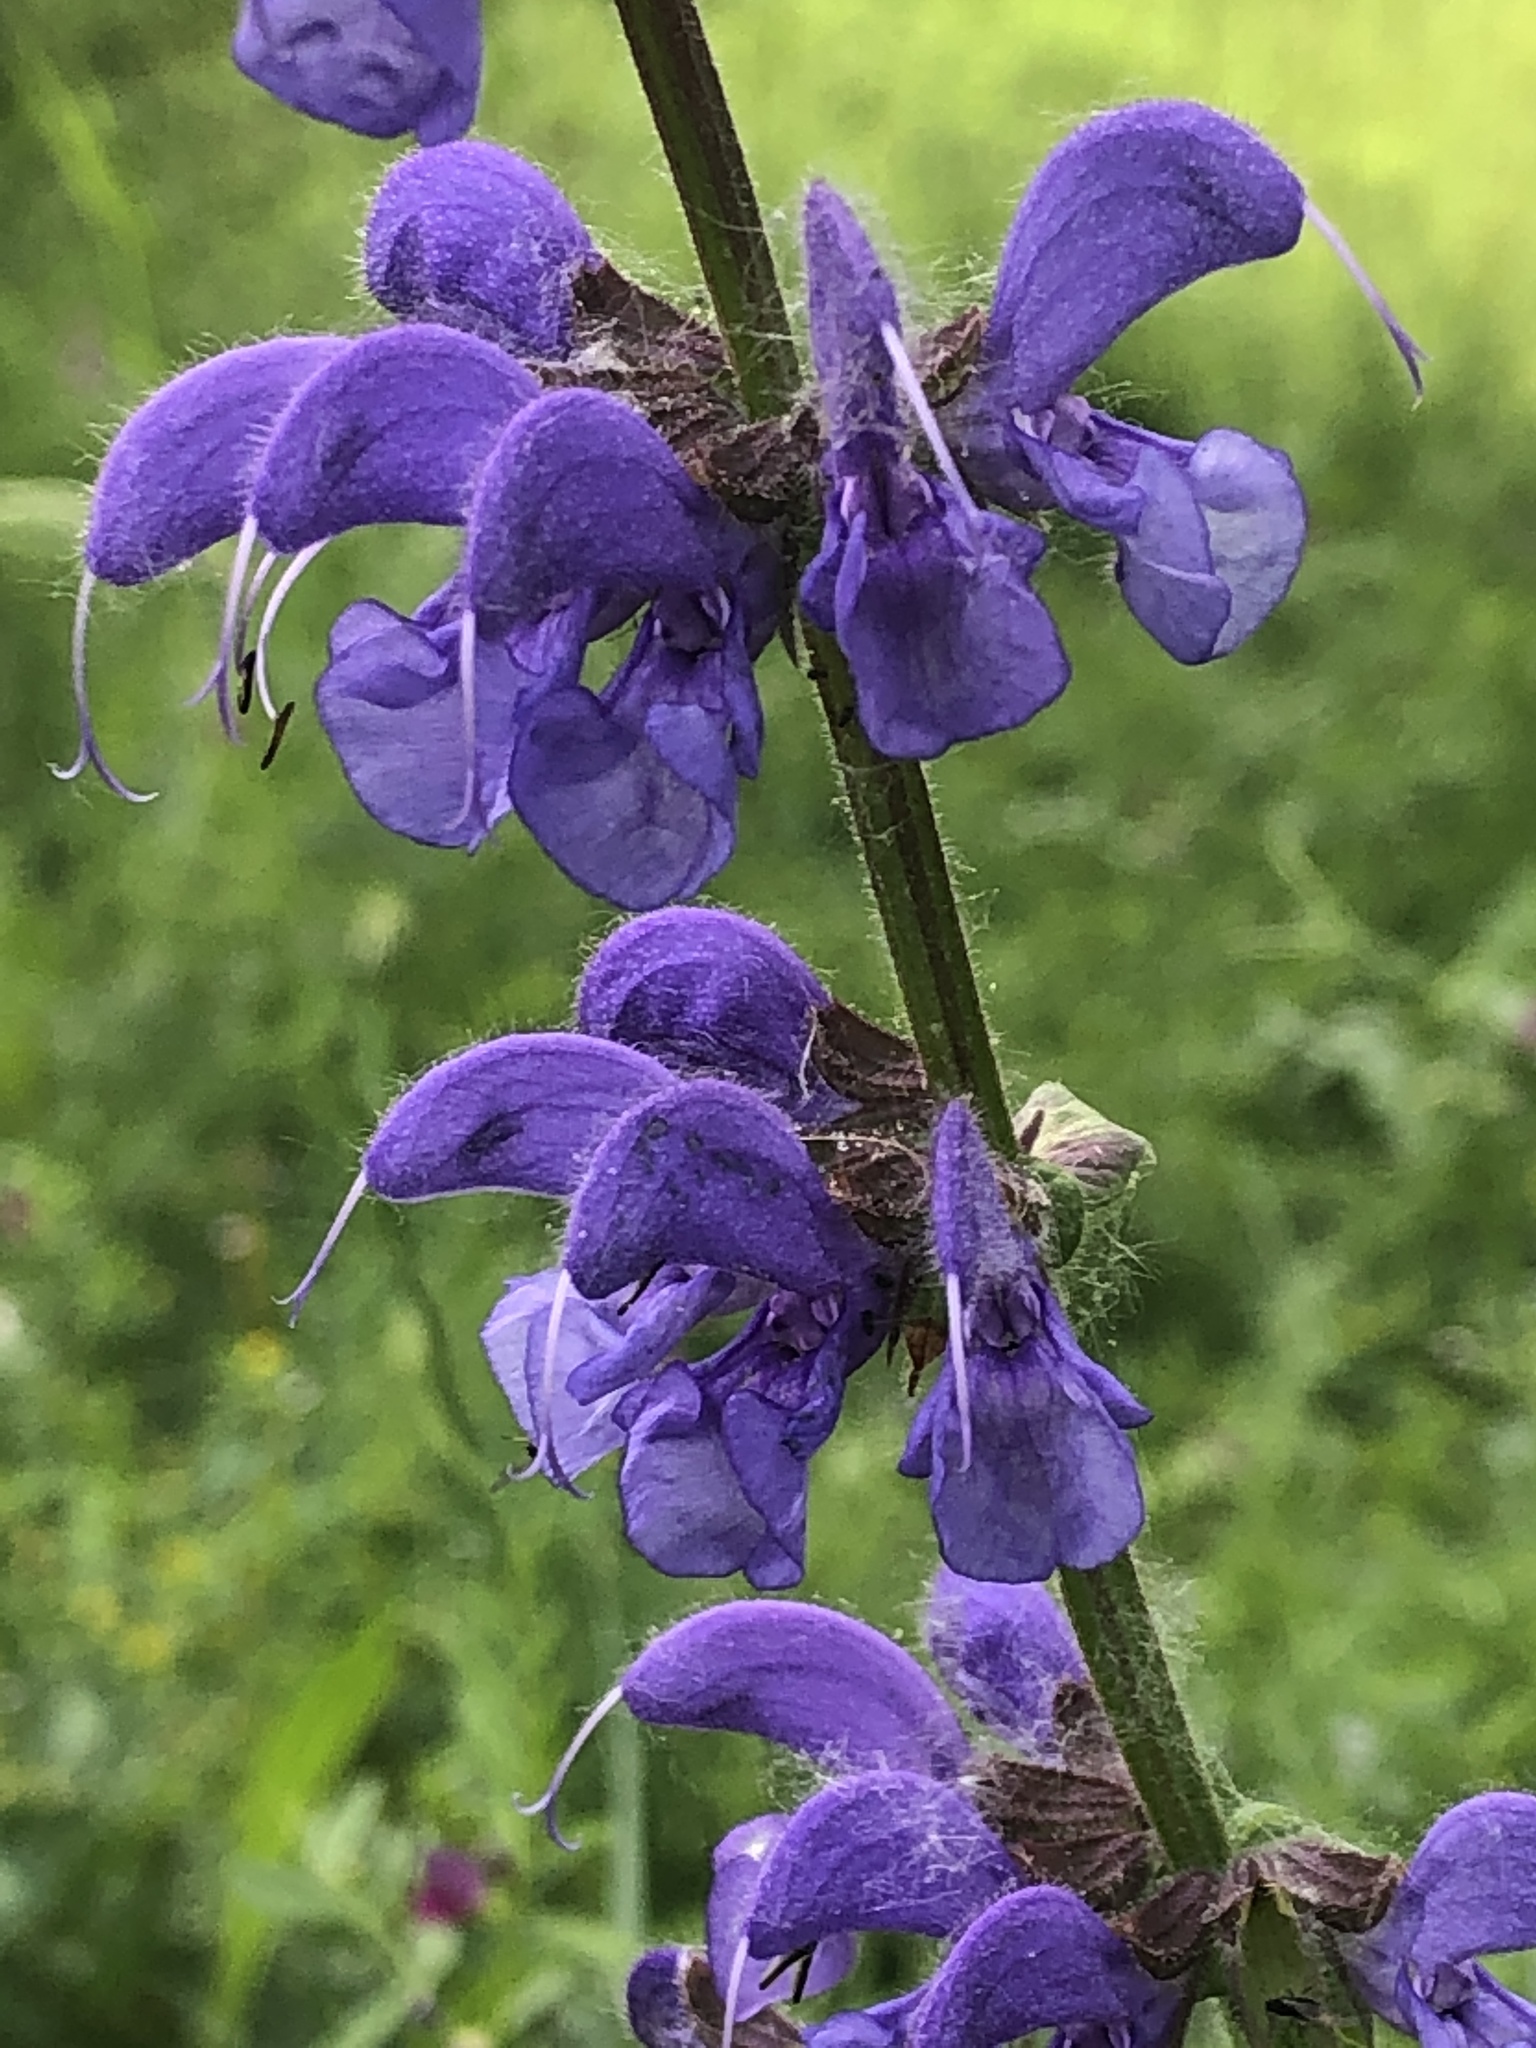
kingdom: Plantae
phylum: Tracheophyta
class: Magnoliopsida
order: Lamiales
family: Lamiaceae
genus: Salvia
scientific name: Salvia pratensis
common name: Meadow sage
